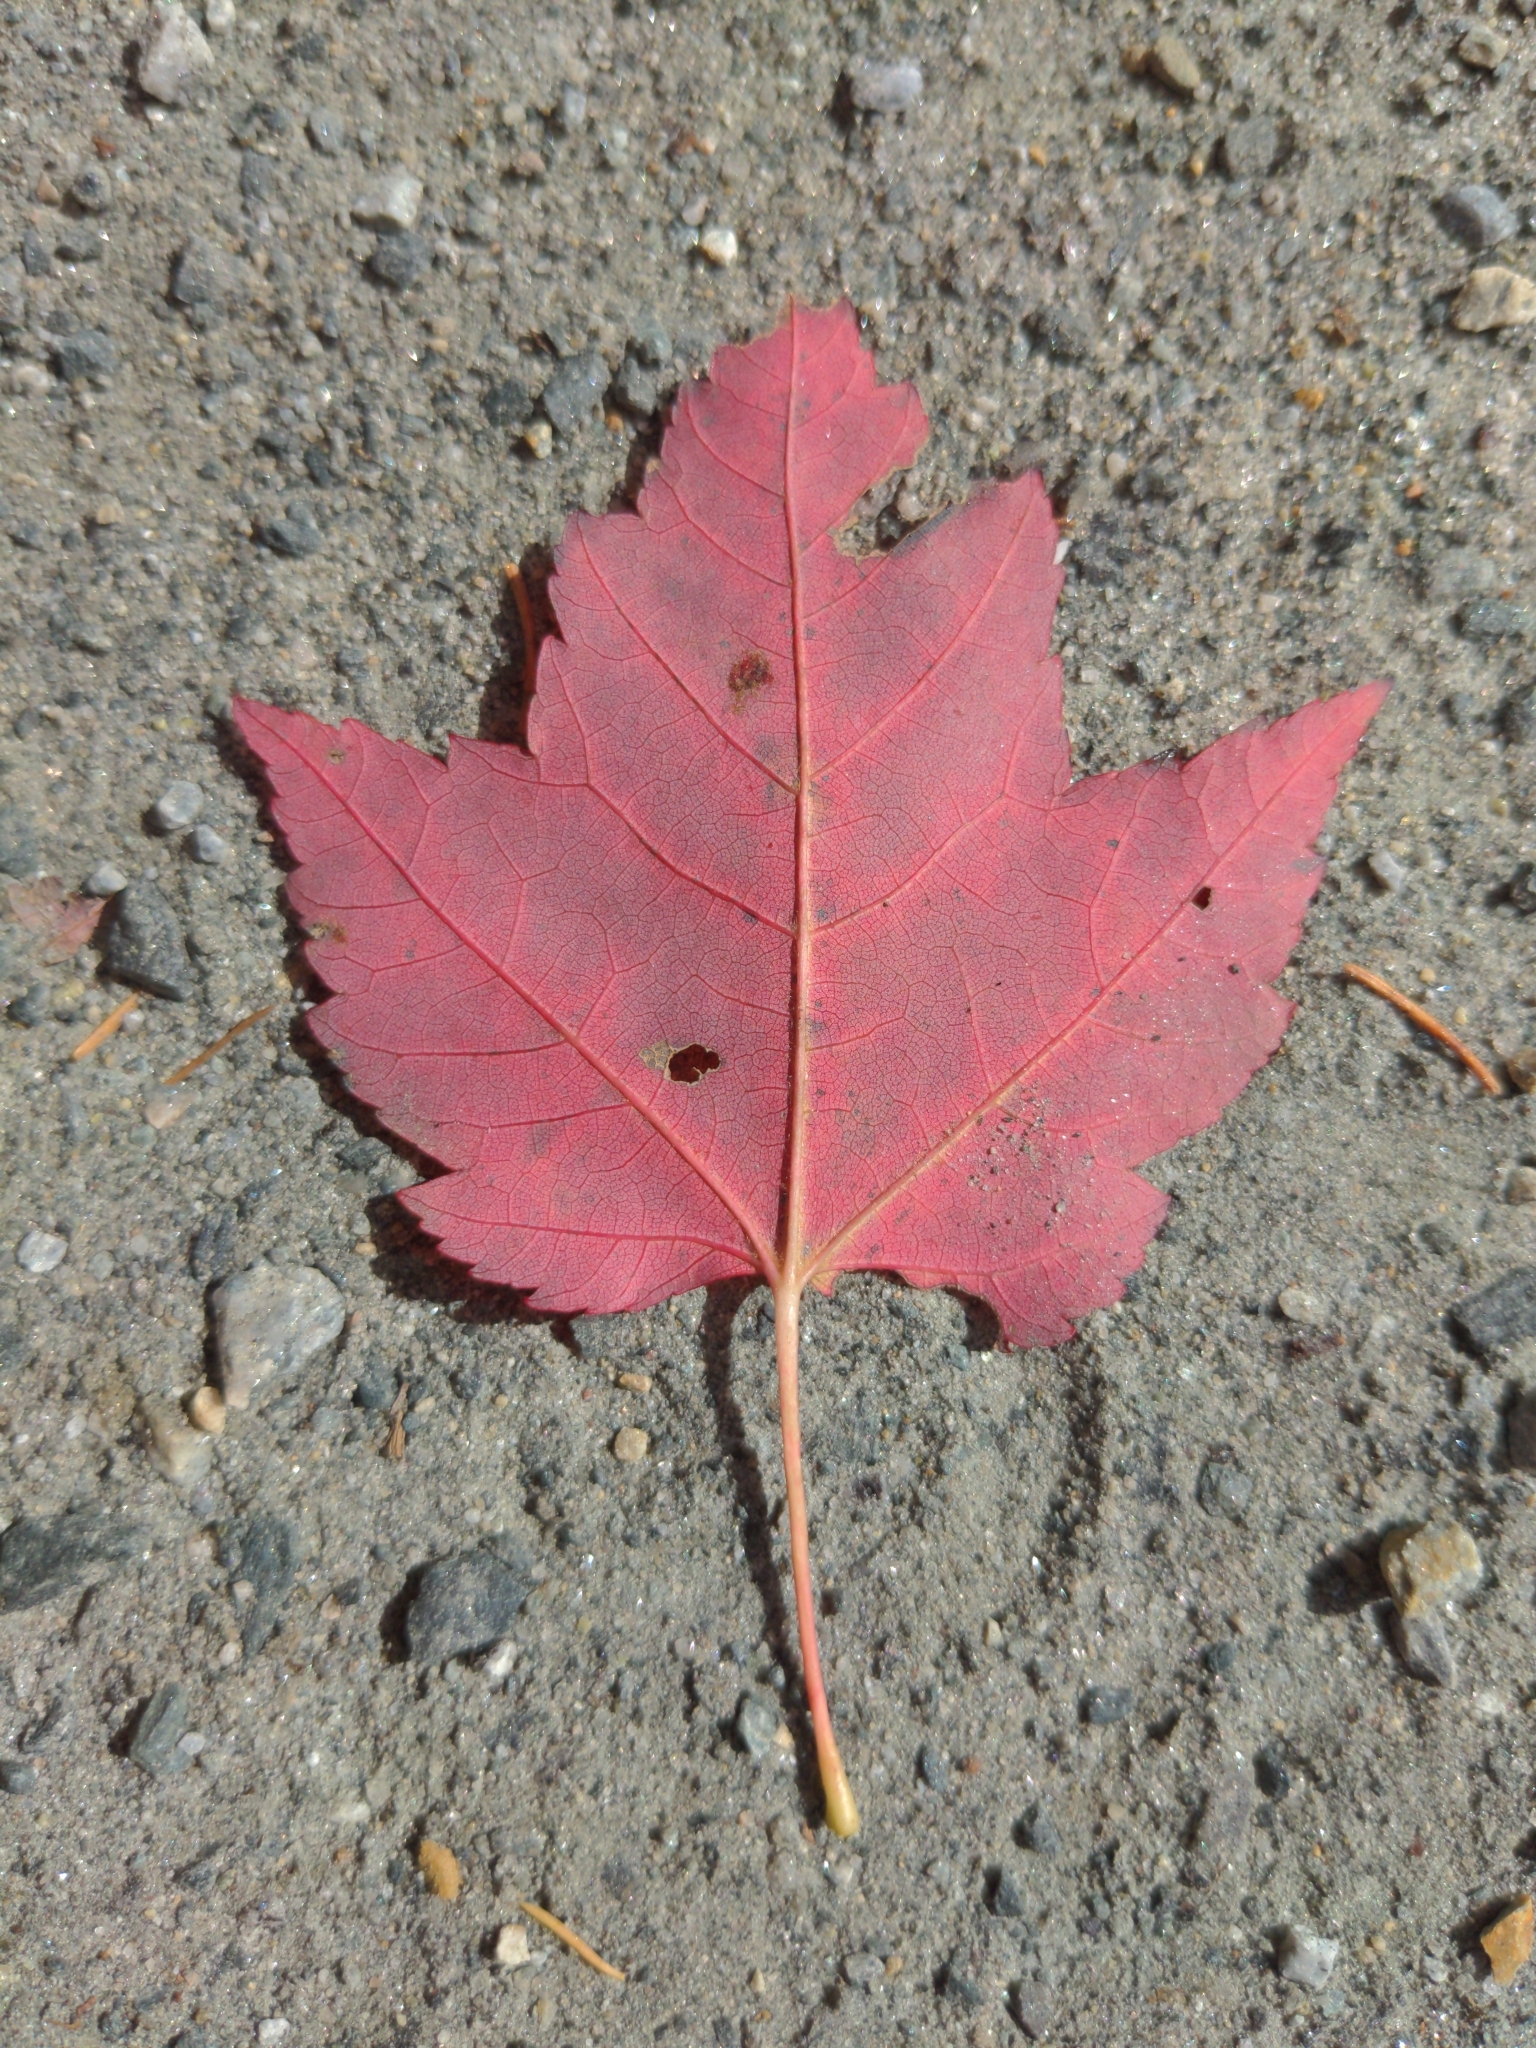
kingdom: Plantae
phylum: Tracheophyta
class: Magnoliopsida
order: Sapindales
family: Sapindaceae
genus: Acer
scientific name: Acer rubrum
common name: Red maple
